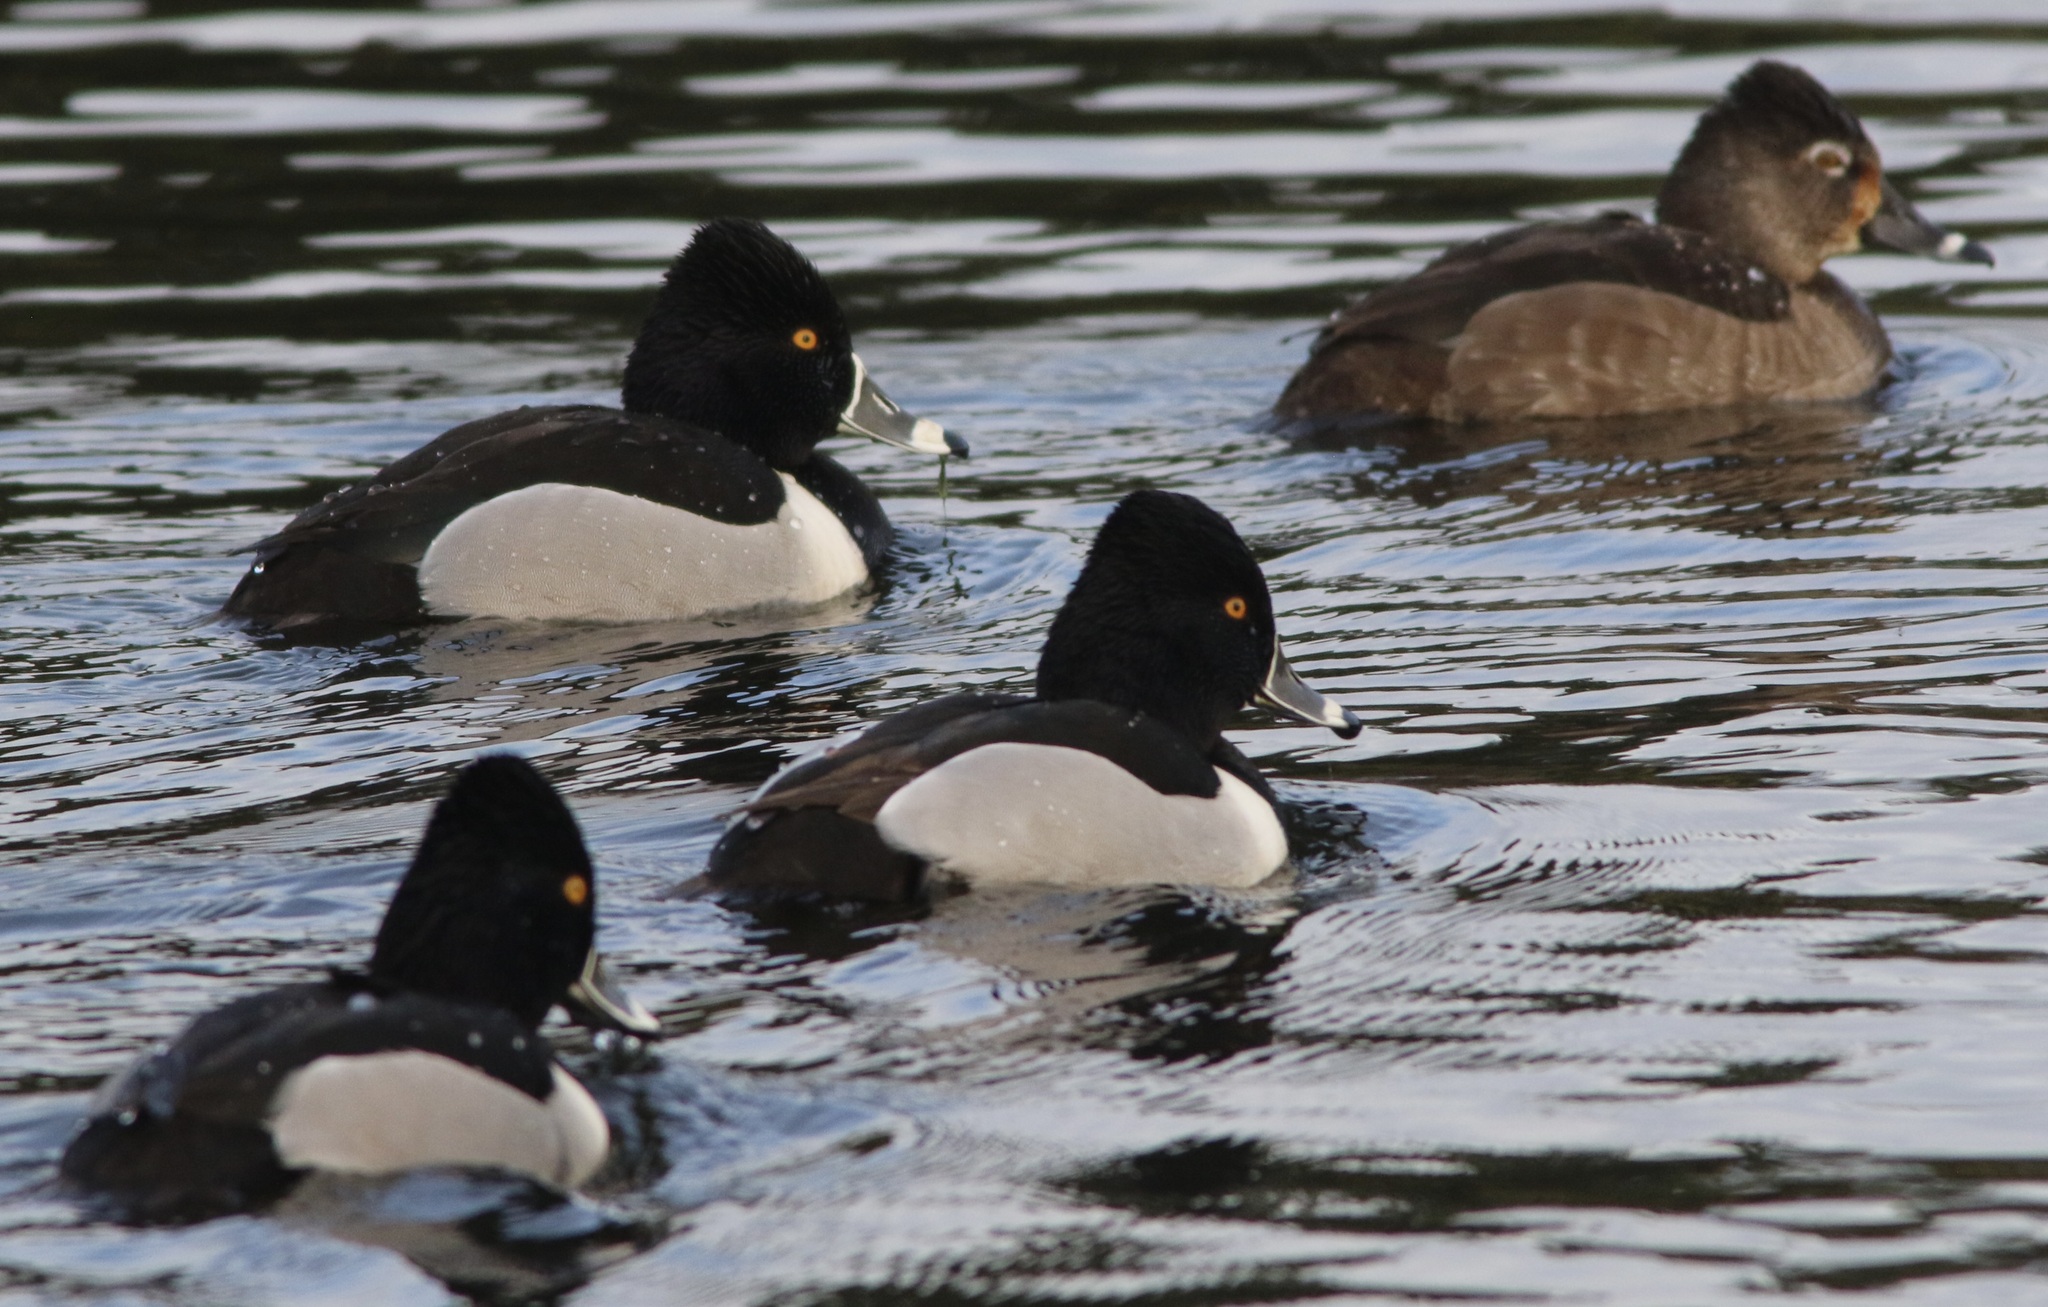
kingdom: Animalia
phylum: Chordata
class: Aves
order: Anseriformes
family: Anatidae
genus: Aythya
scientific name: Aythya collaris
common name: Ring-necked duck
